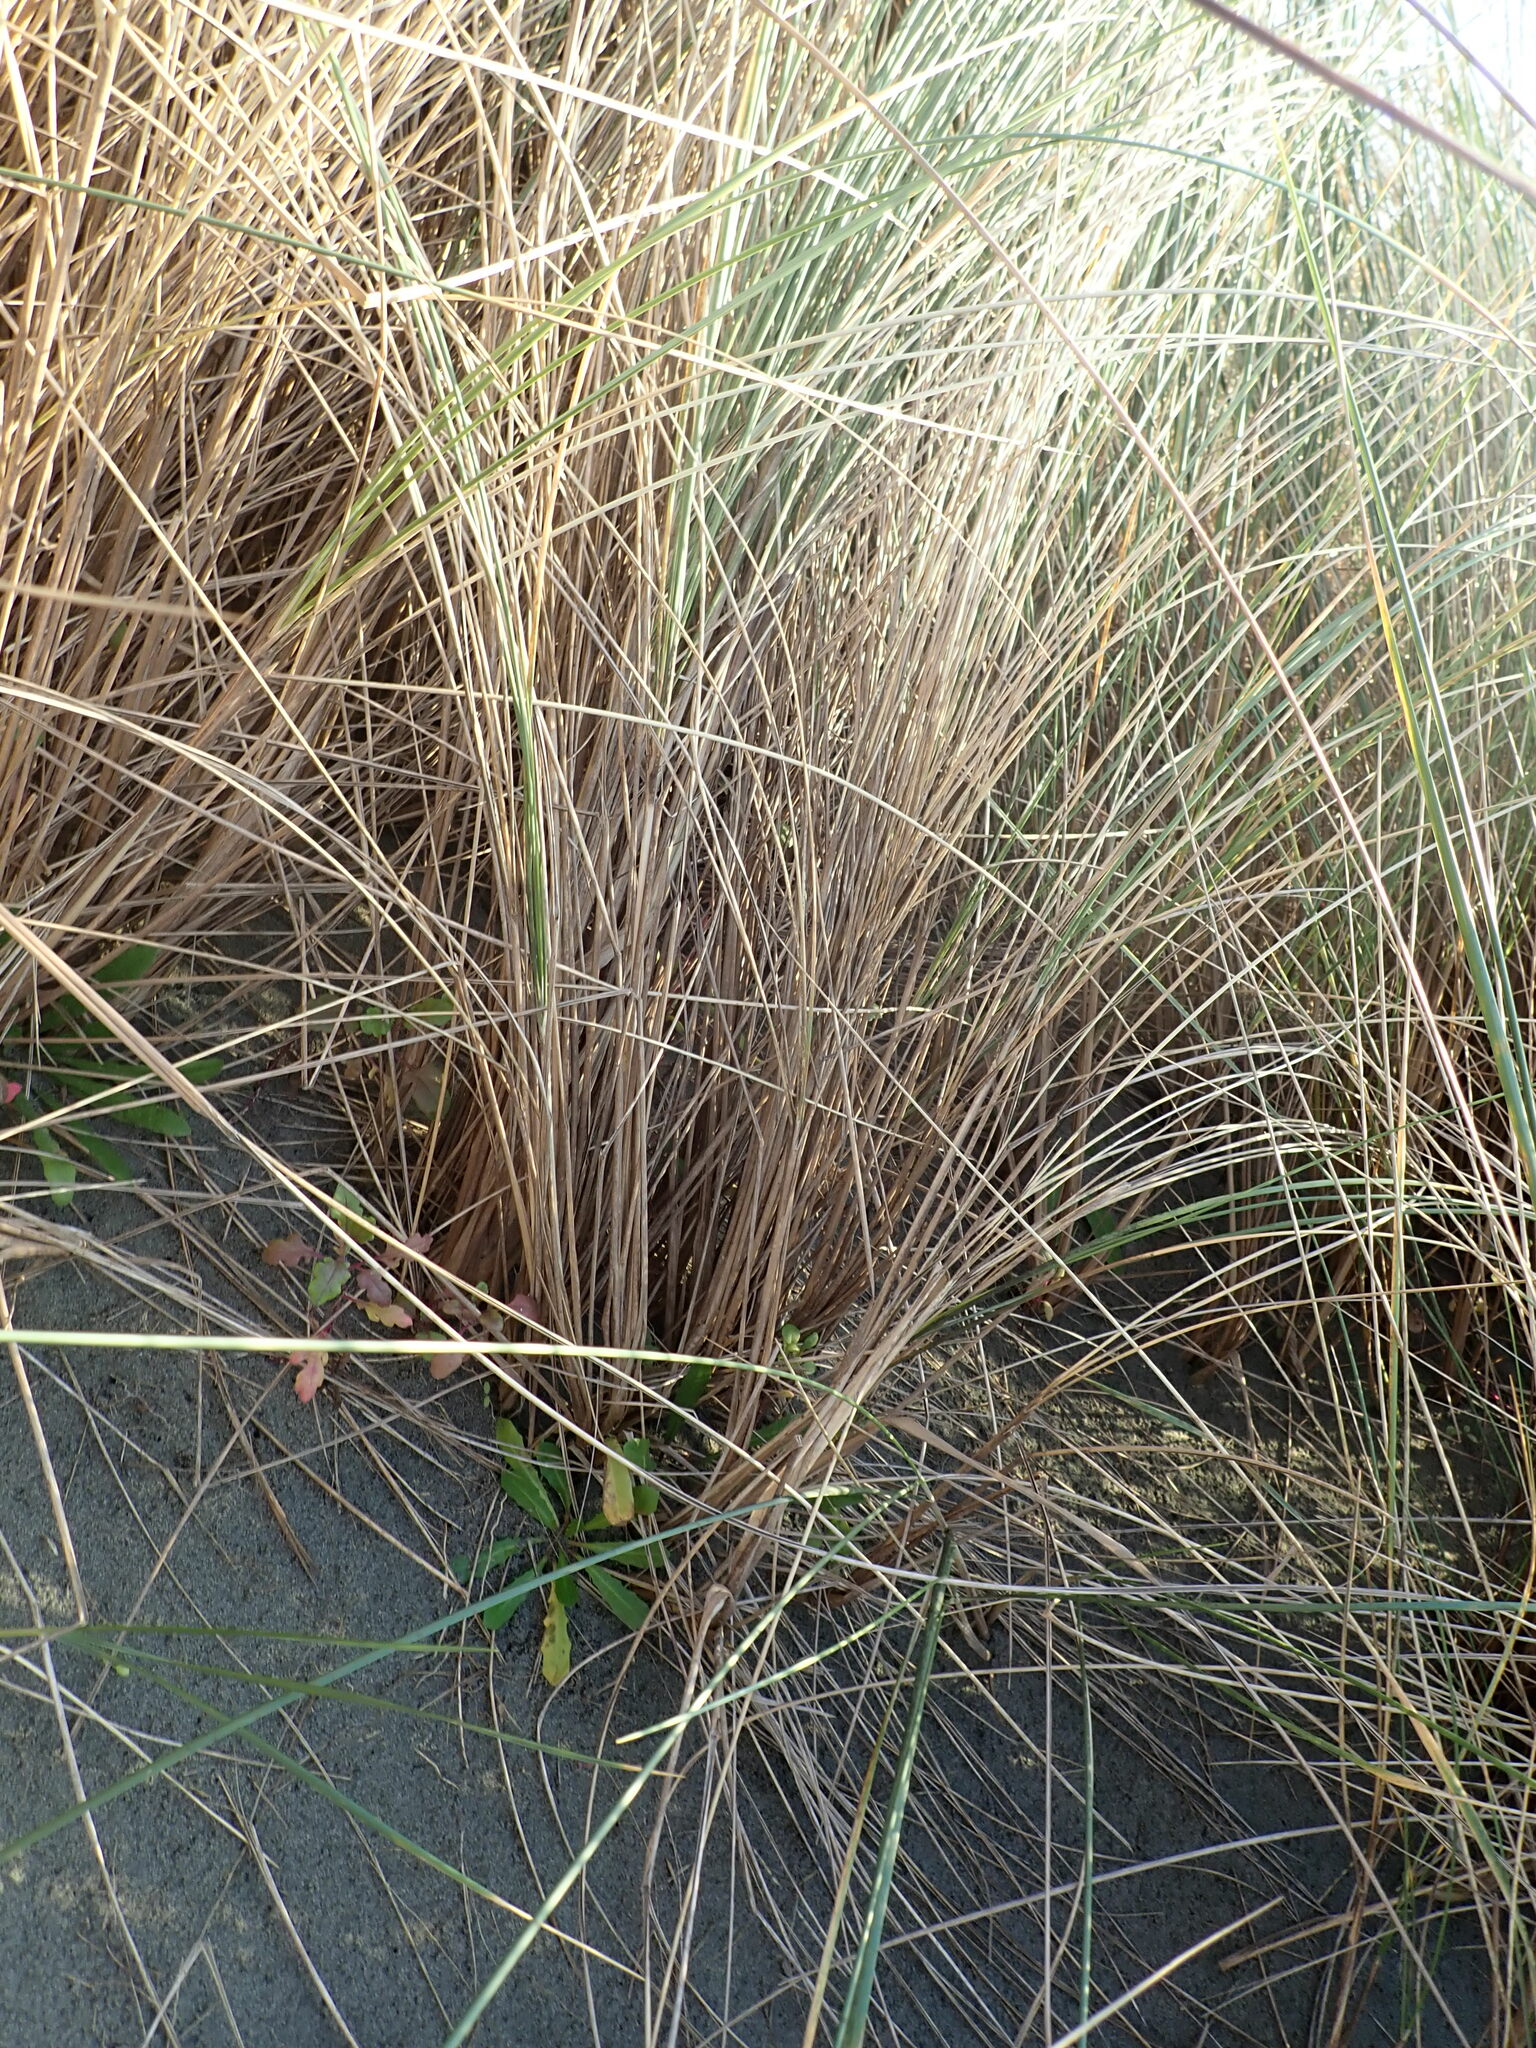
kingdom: Plantae
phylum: Tracheophyta
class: Liliopsida
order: Poales
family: Poaceae
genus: Calamagrostis
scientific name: Calamagrostis arenaria
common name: European beachgrass
